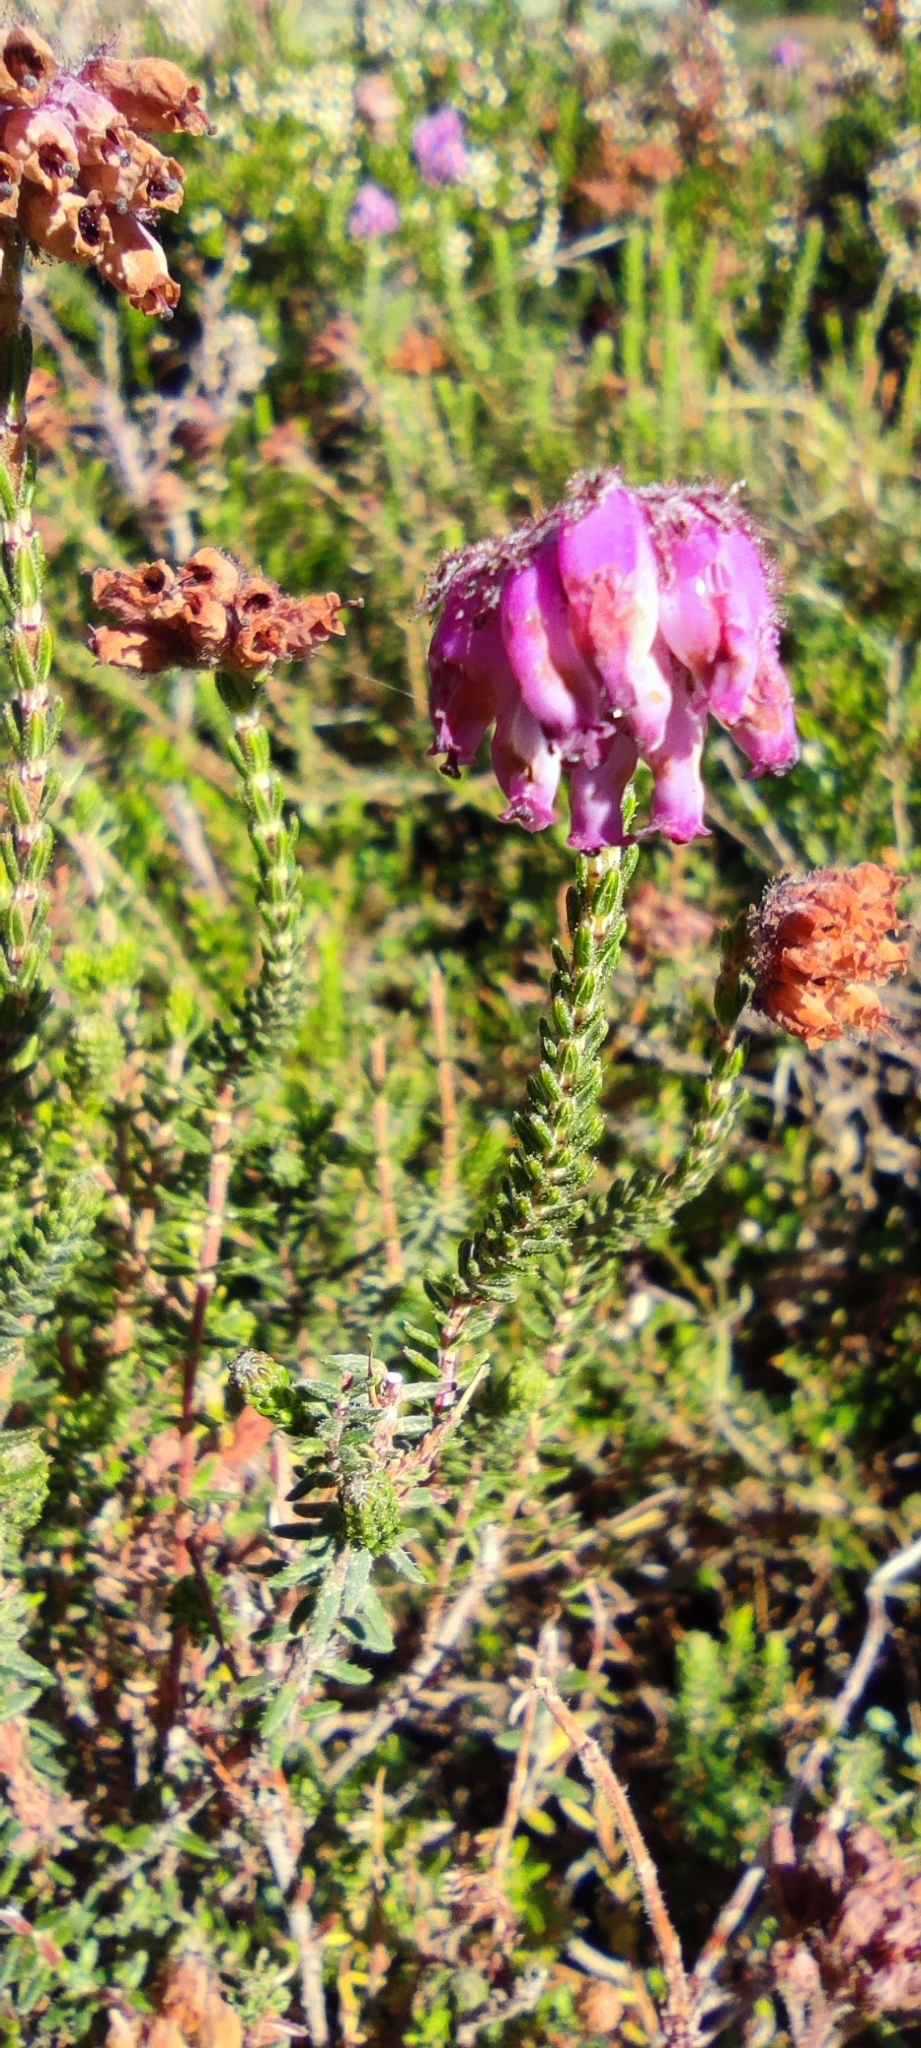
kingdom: Plantae
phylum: Tracheophyta
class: Magnoliopsida
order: Ericales
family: Ericaceae
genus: Erica
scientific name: Erica tetralix
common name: Cross-leaved heath
